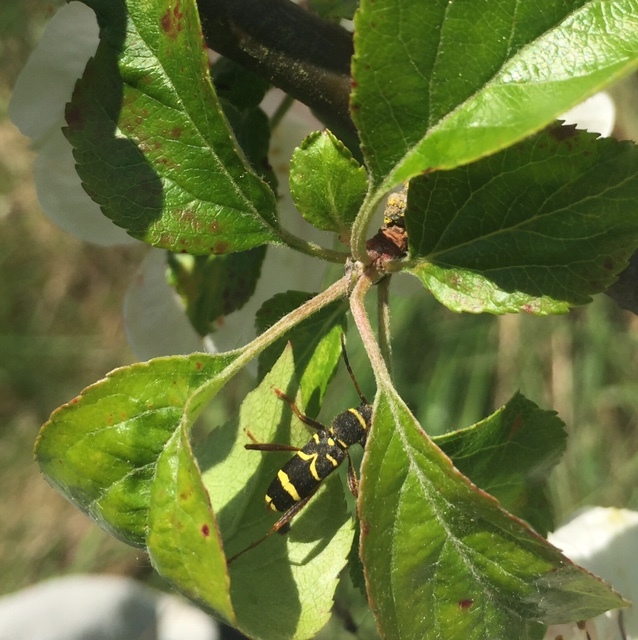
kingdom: Animalia
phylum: Arthropoda
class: Insecta
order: Coleoptera
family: Cerambycidae
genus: Clytus
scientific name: Clytus arietis
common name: Wasp beetle
